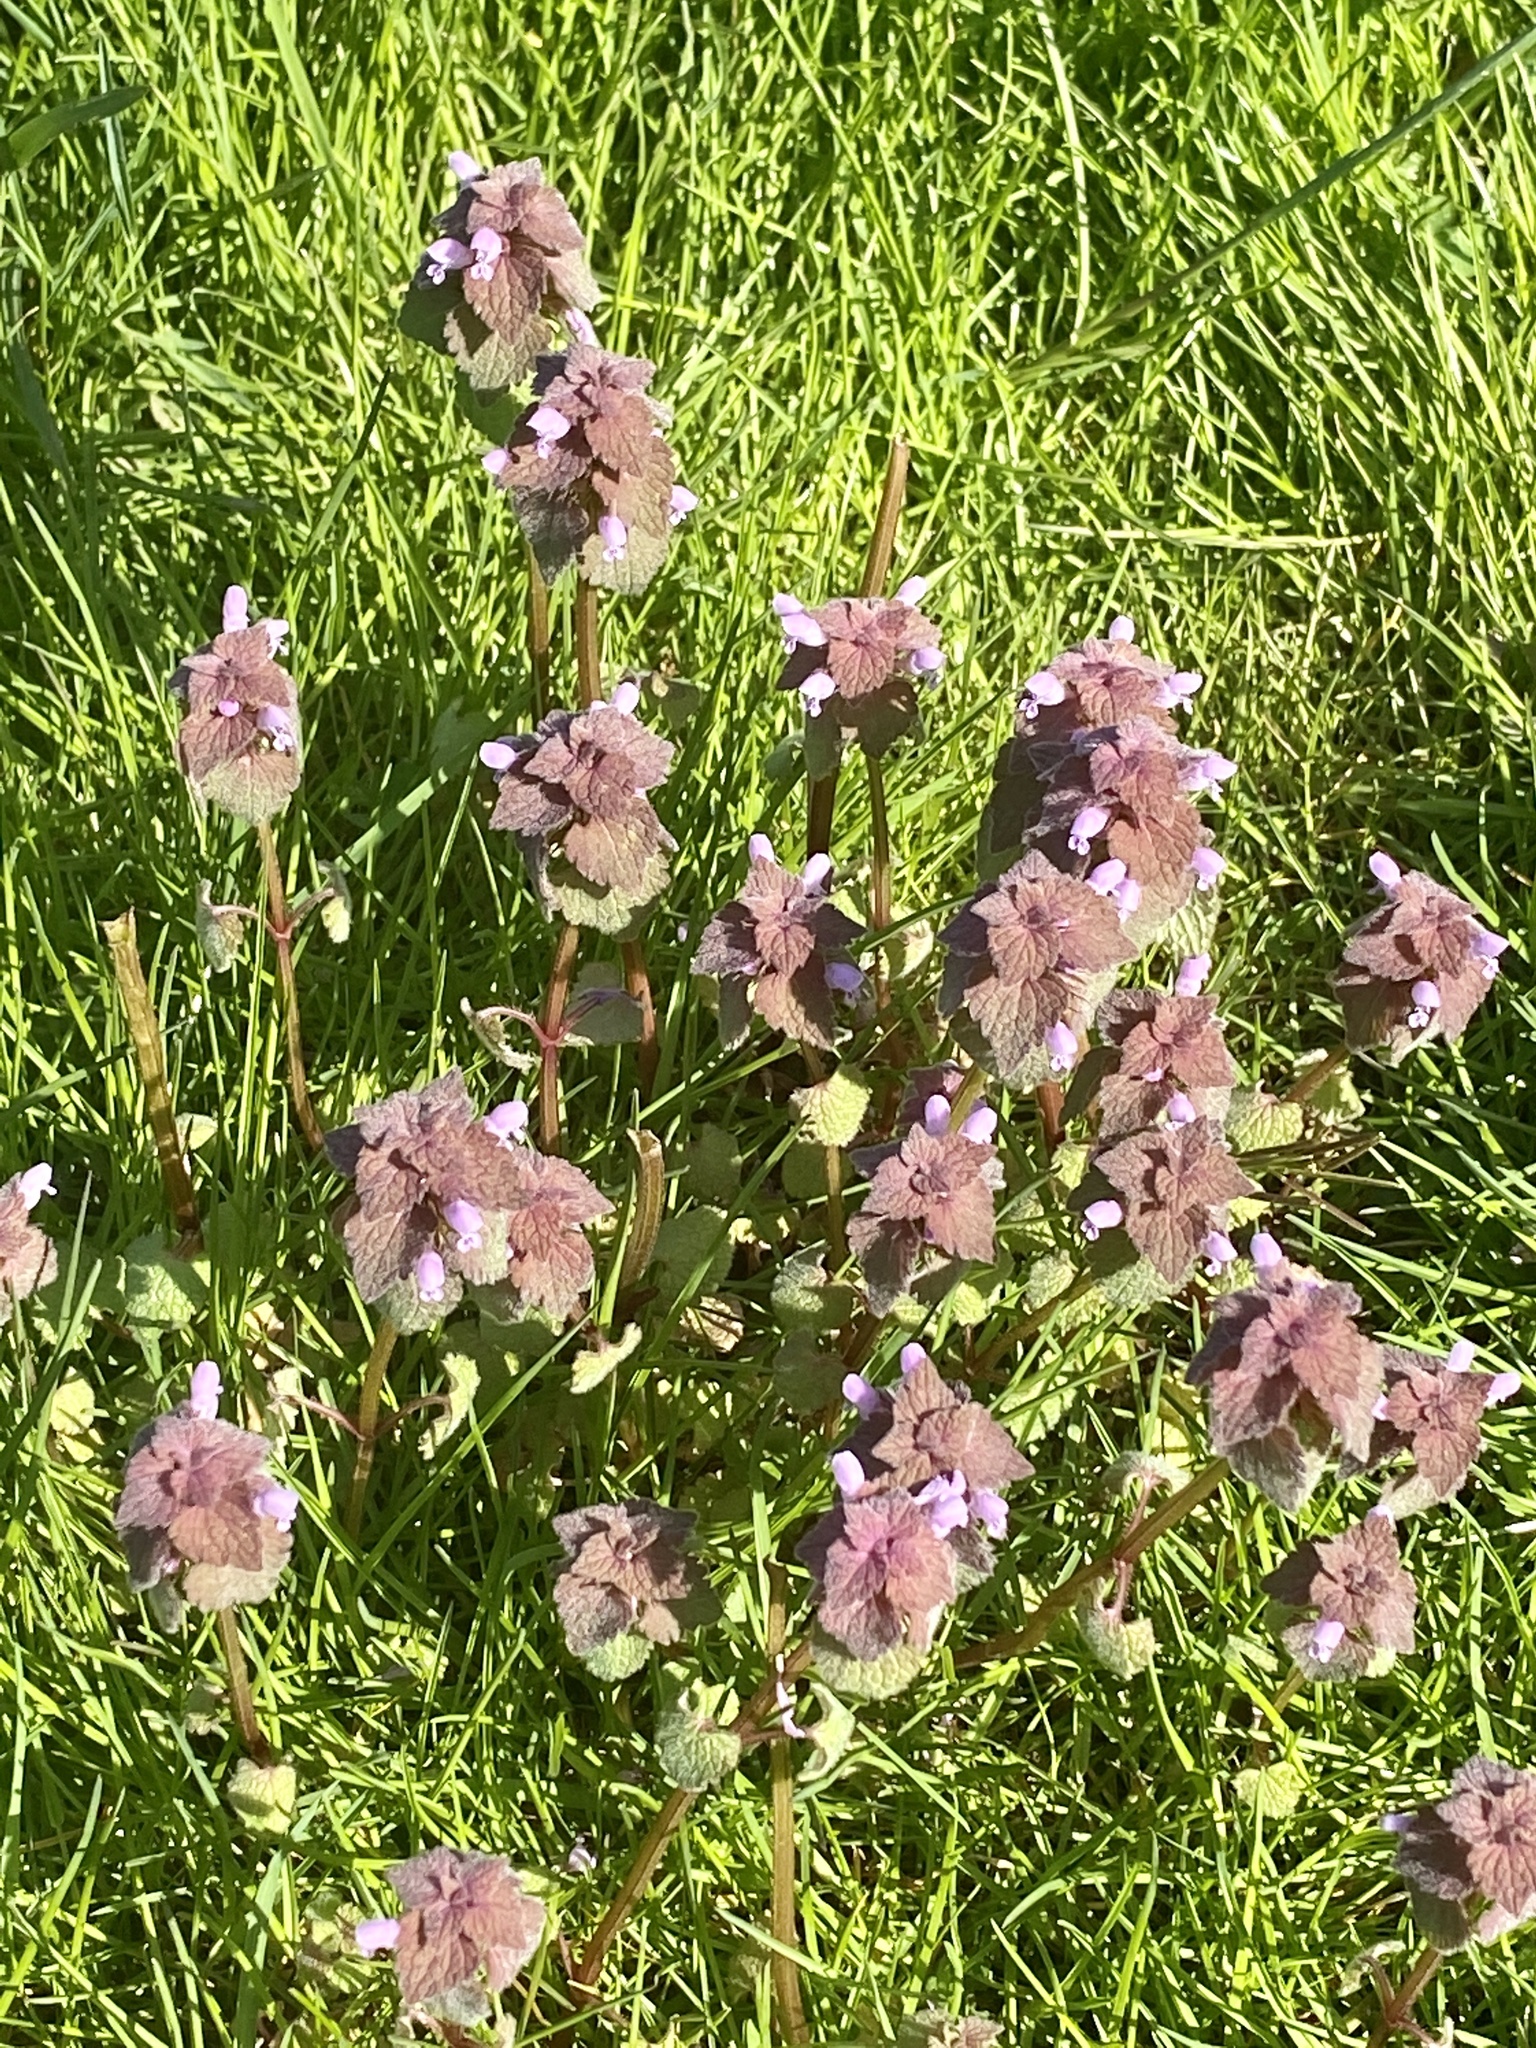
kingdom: Plantae
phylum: Tracheophyta
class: Magnoliopsida
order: Lamiales
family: Lamiaceae
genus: Lamium
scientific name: Lamium purpureum
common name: Red dead-nettle
